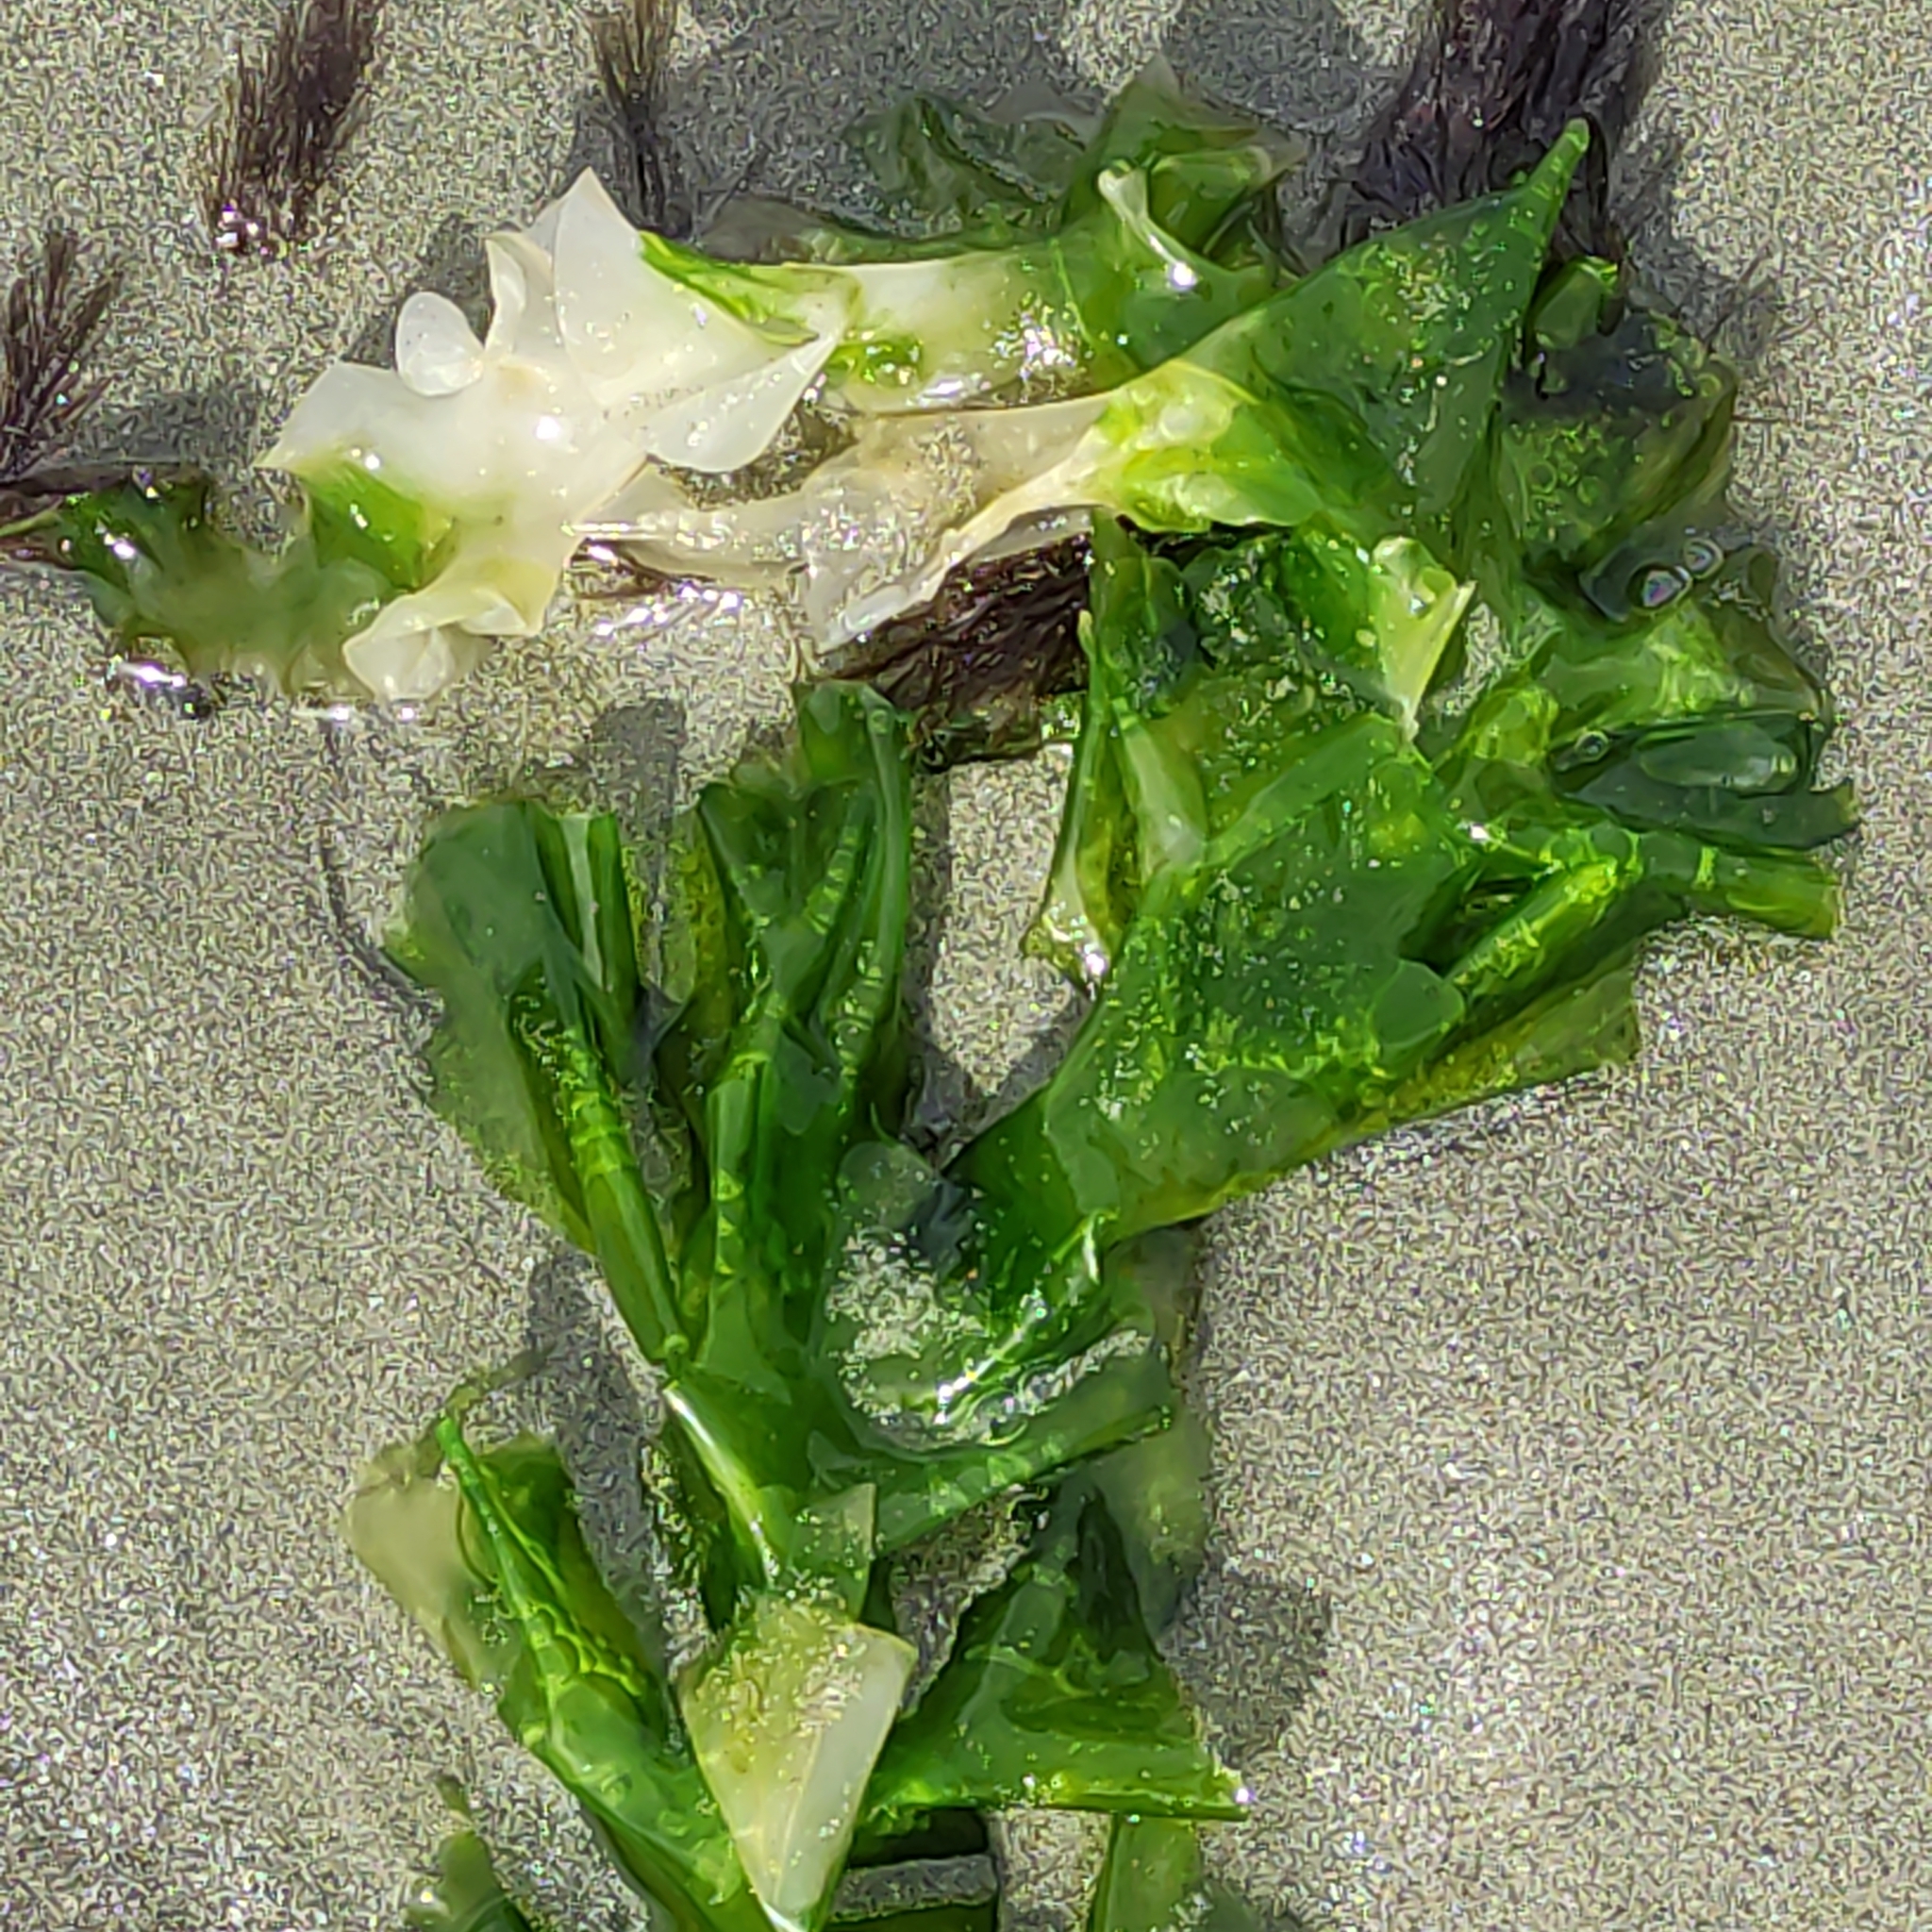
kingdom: Plantae
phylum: Chlorophyta
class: Ulvophyceae
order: Ulvales
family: Ulvaceae
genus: Ulva
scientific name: Ulva
